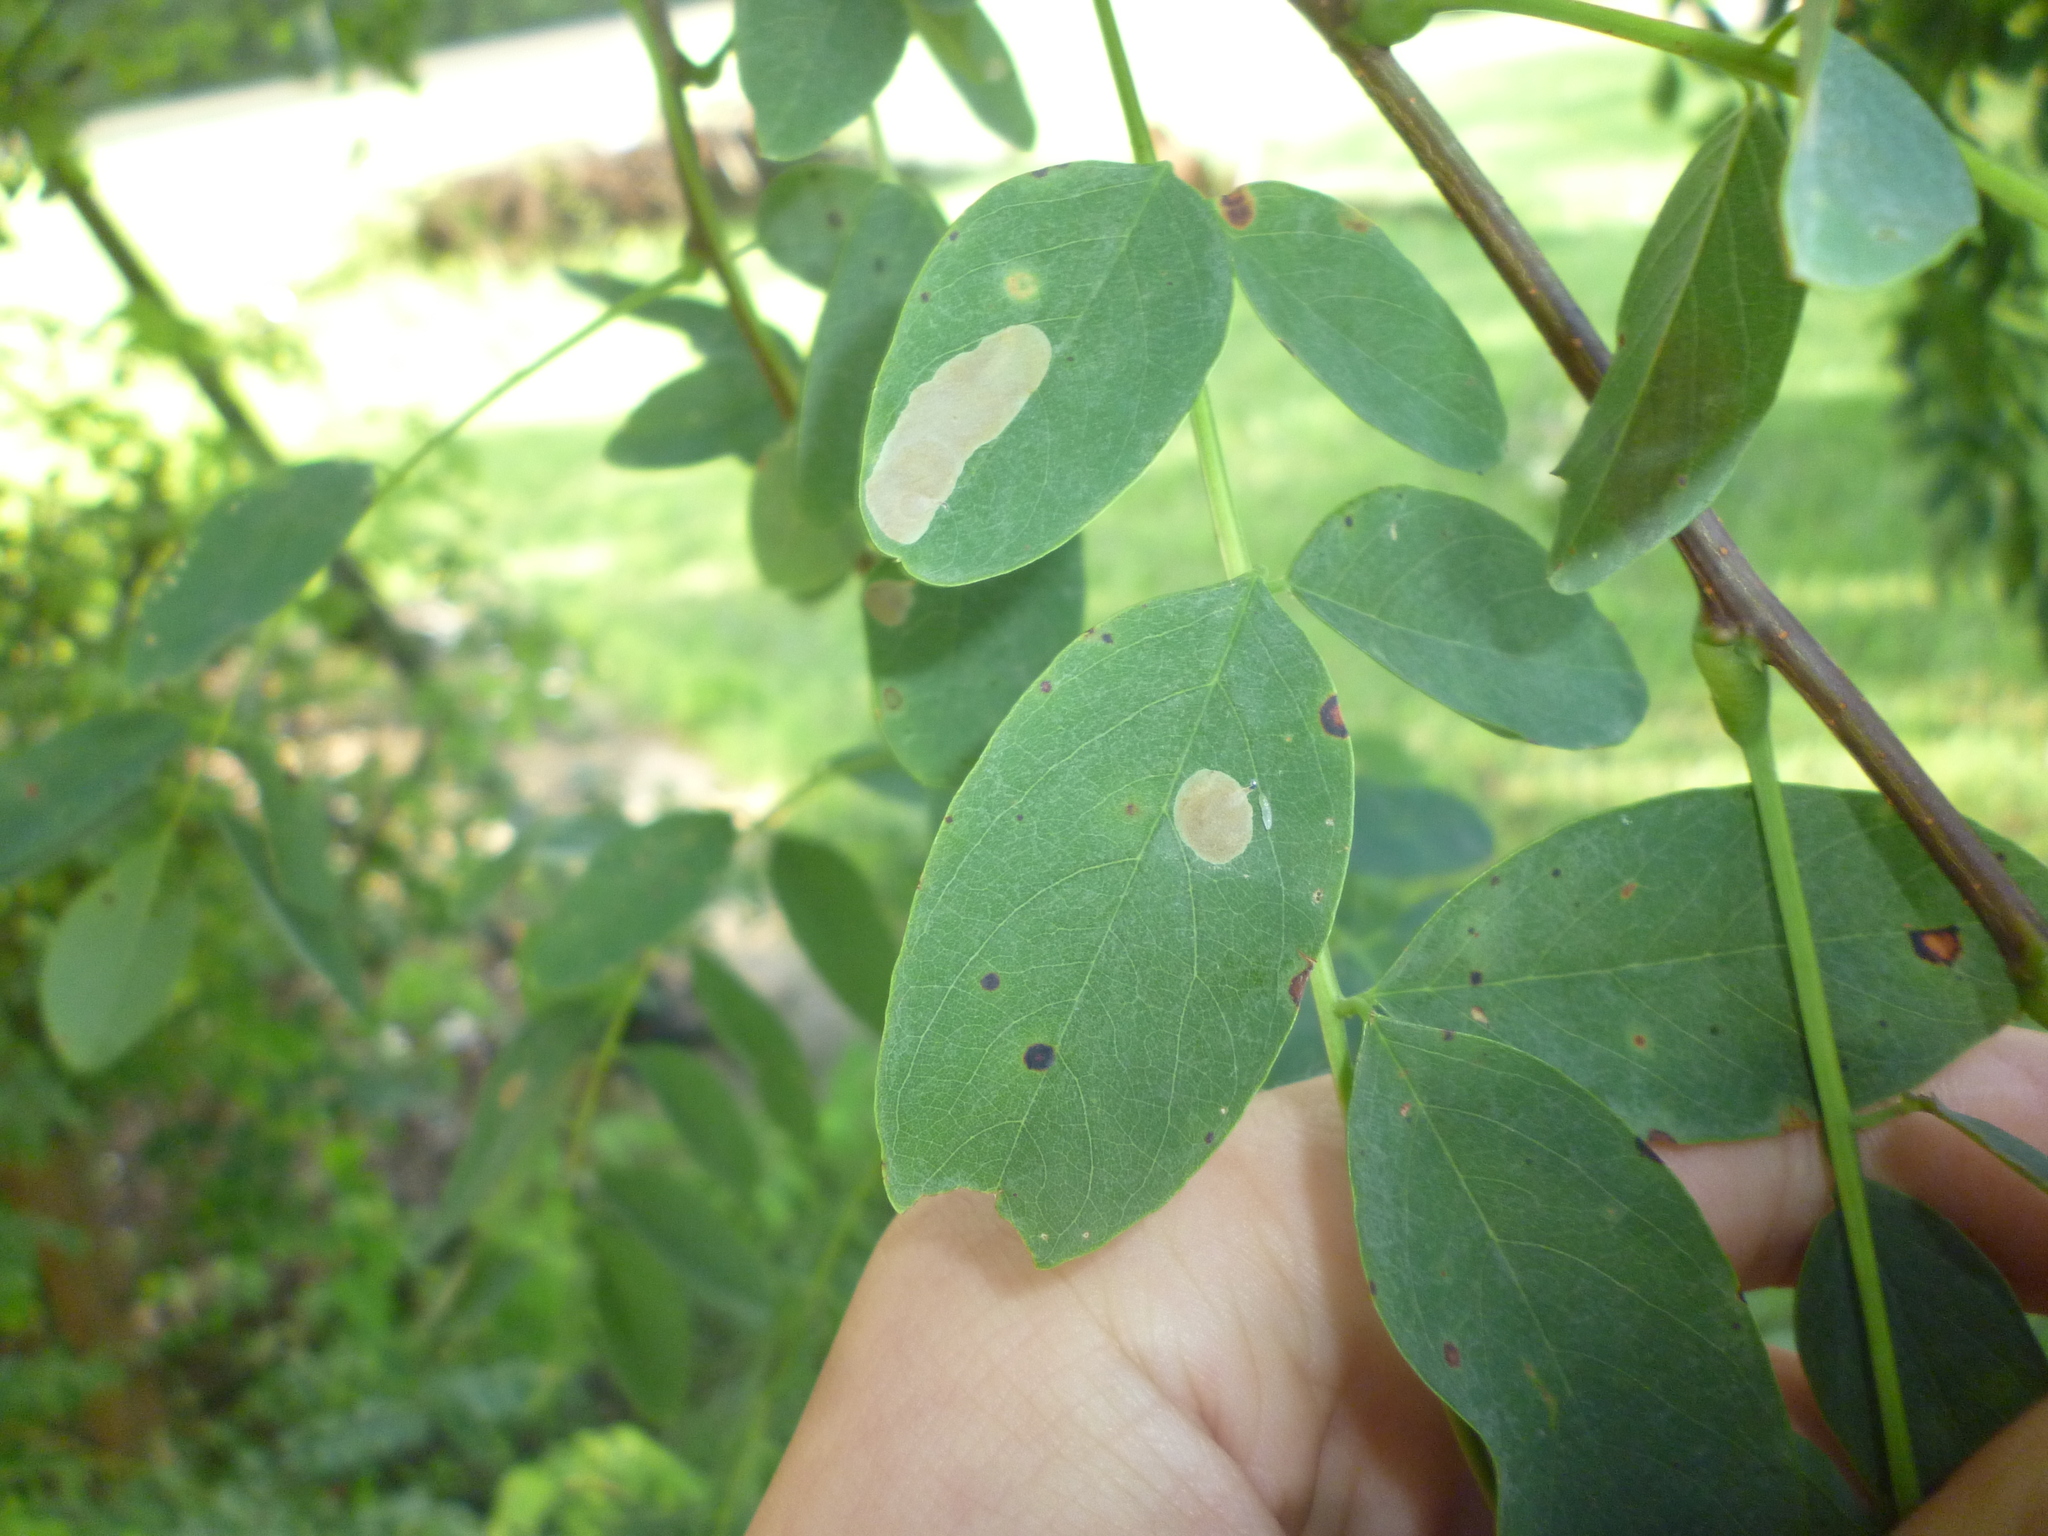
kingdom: Plantae
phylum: Tracheophyta
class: Magnoliopsida
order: Fabales
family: Fabaceae
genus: Robinia
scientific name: Robinia pseudoacacia
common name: Black locust
